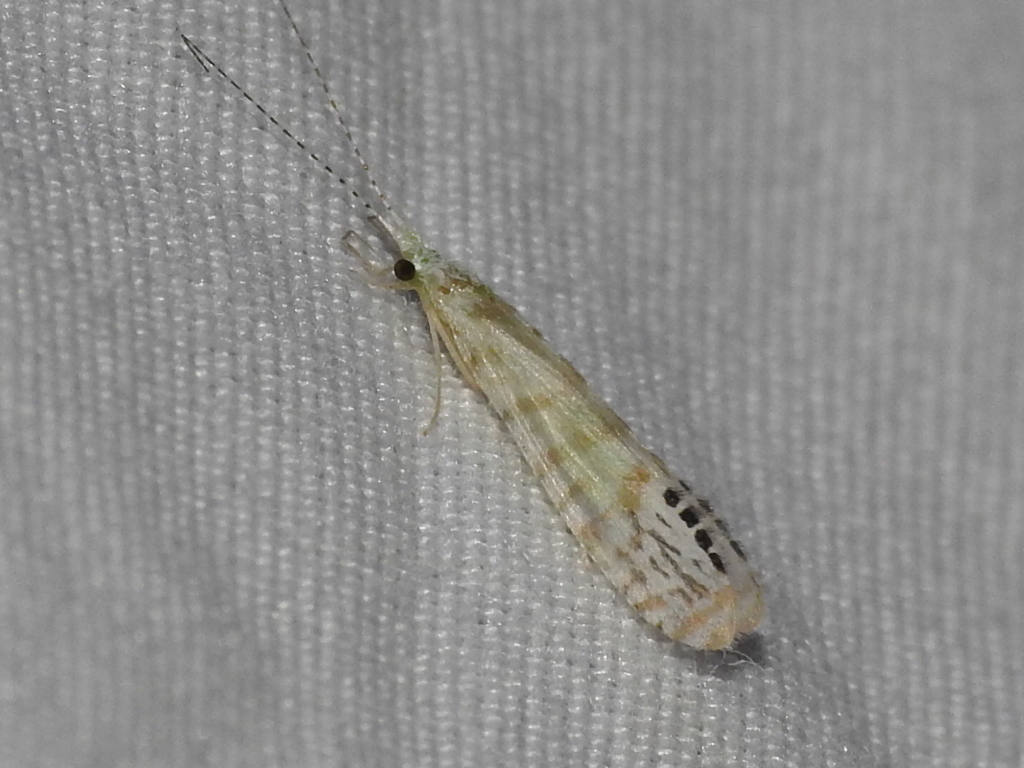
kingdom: Animalia
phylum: Arthropoda
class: Insecta
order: Trichoptera
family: Leptoceridae
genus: Nectopsyche
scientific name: Nectopsyche exquisita
